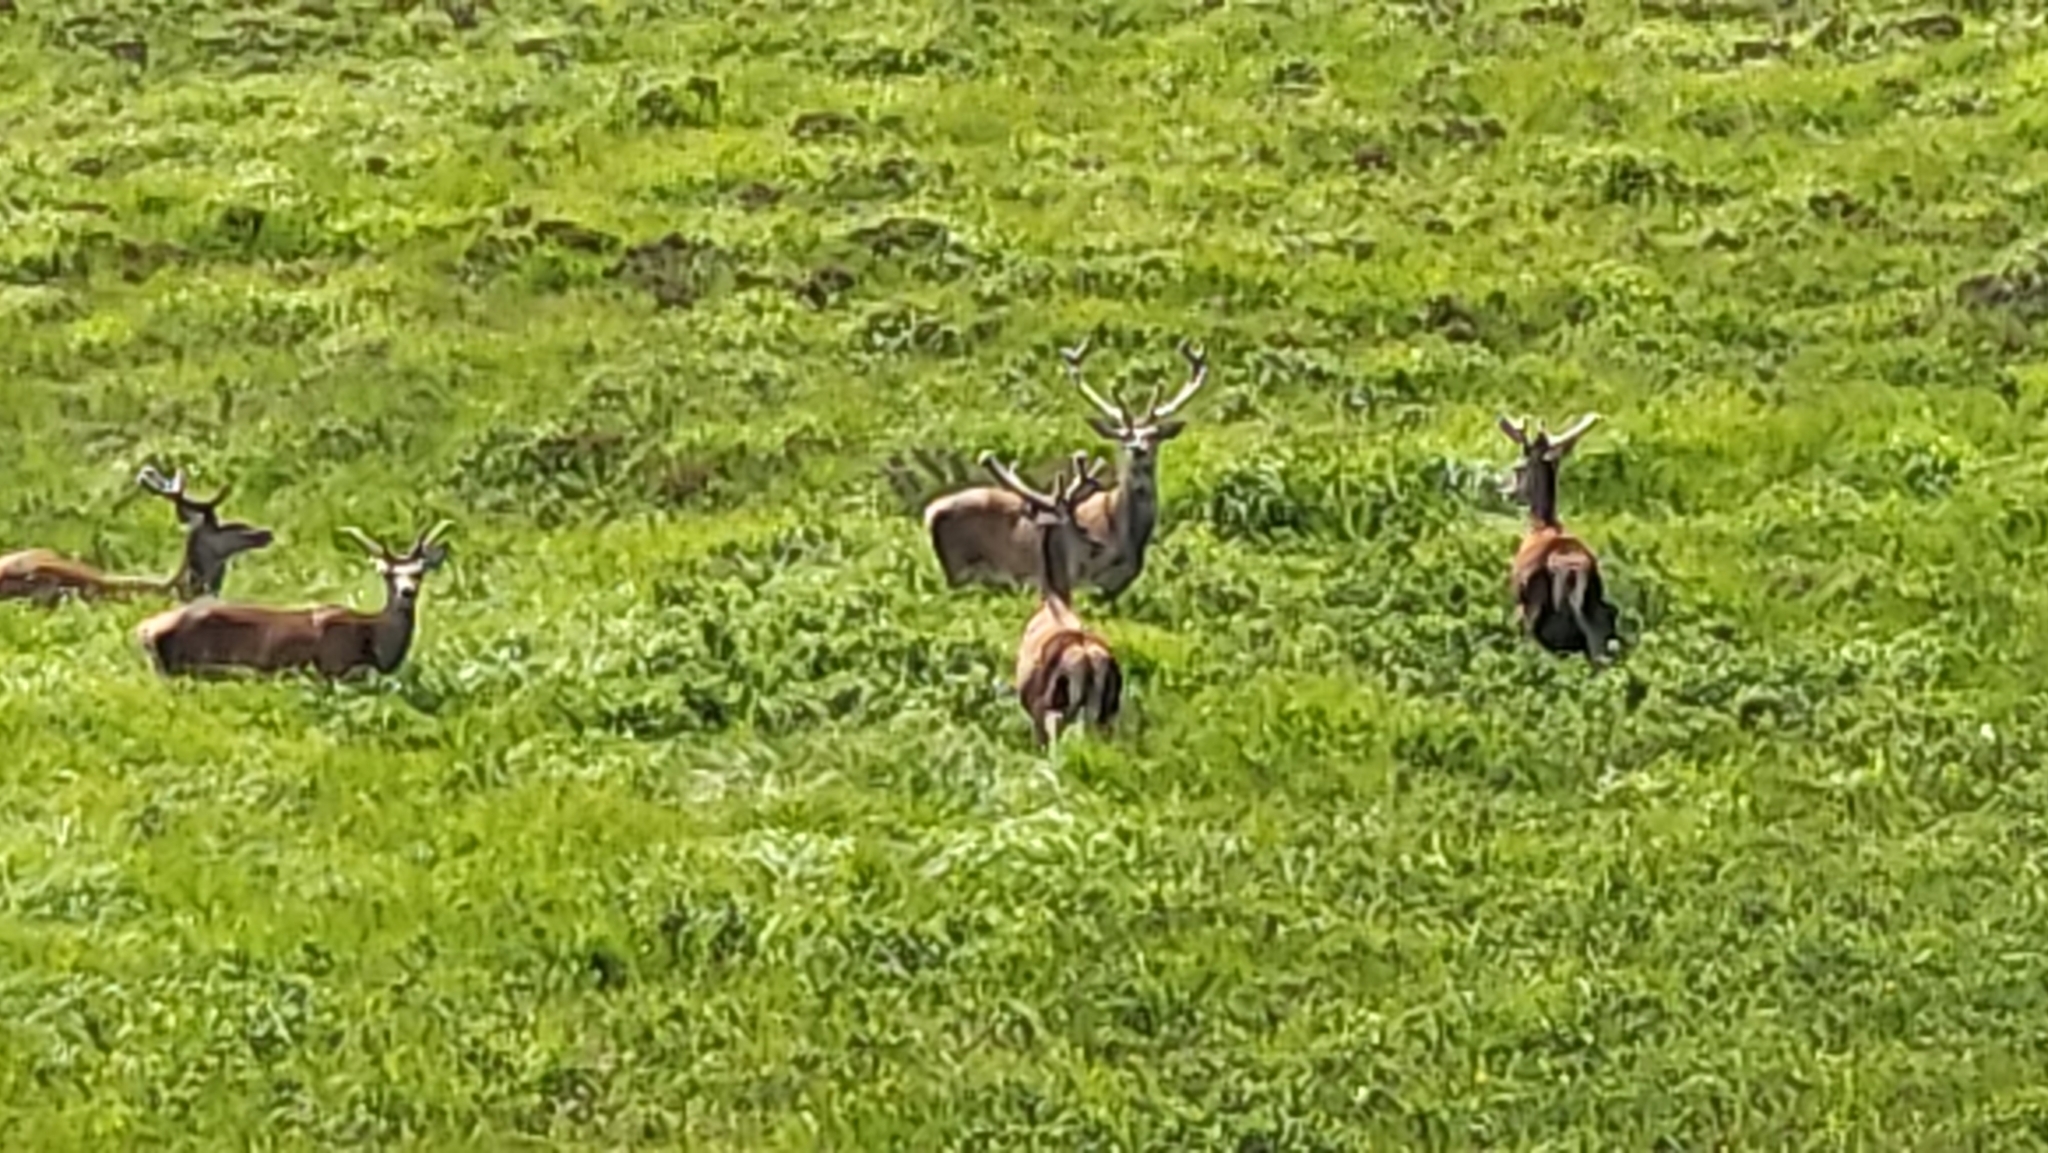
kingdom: Animalia
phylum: Chordata
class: Mammalia
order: Artiodactyla
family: Cervidae
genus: Cervus
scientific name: Cervus elaphus
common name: Red deer
